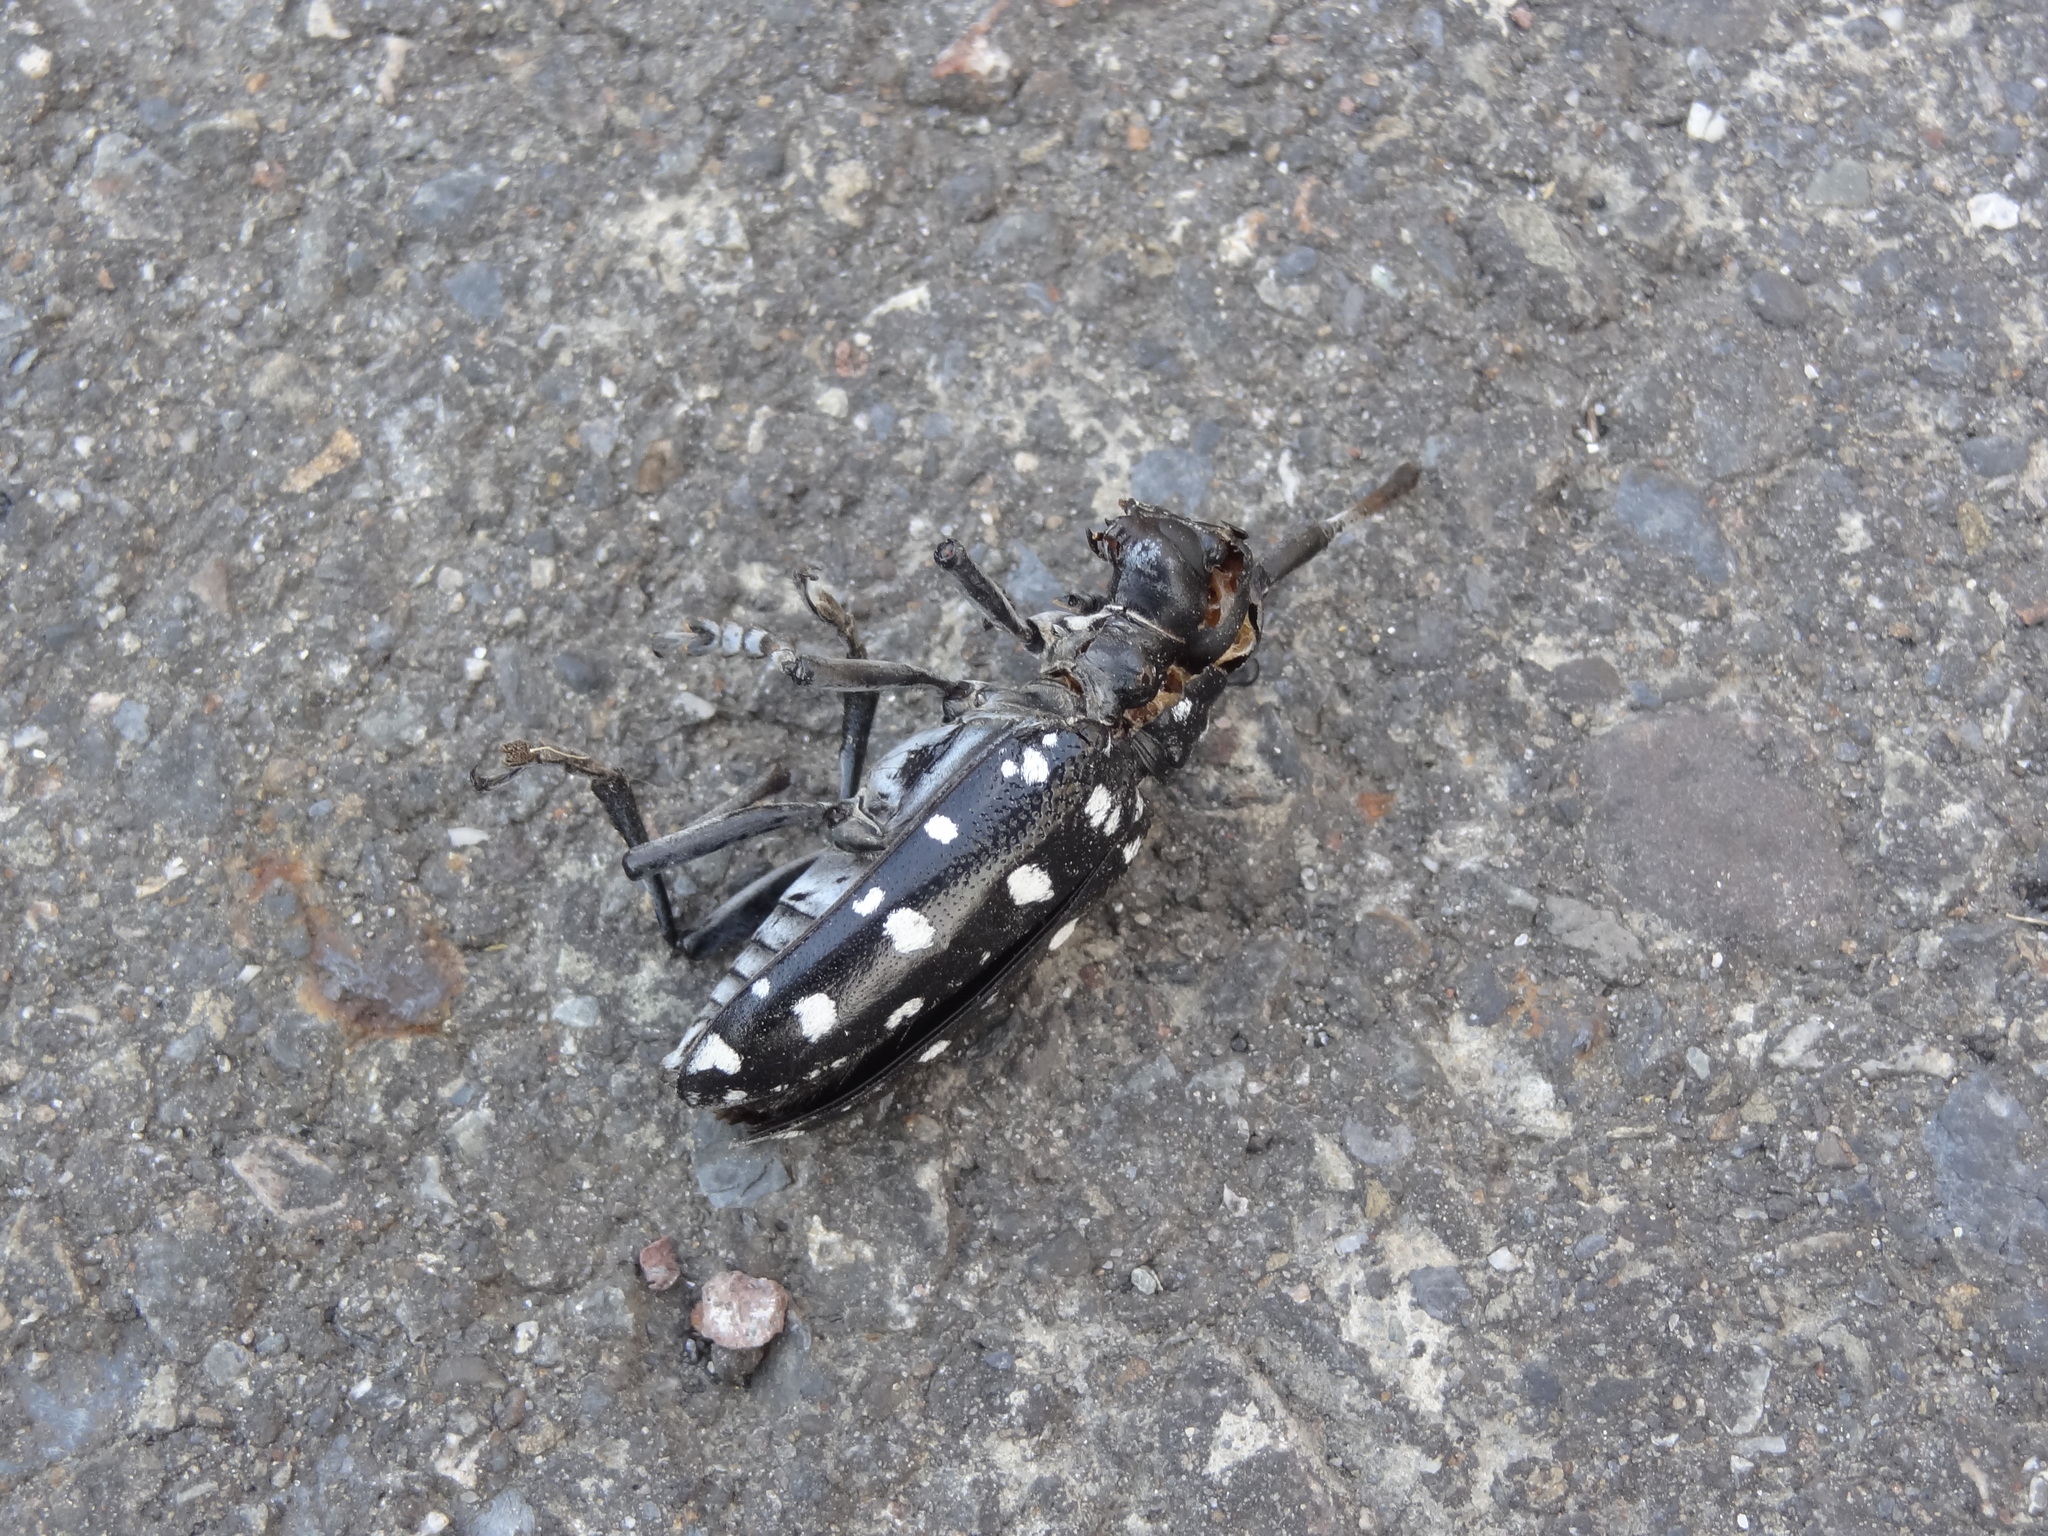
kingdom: Animalia
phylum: Arthropoda
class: Insecta
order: Coleoptera
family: Cerambycidae
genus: Anoplophora
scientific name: Anoplophora chinensis
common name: Citrus longhorned beetle
